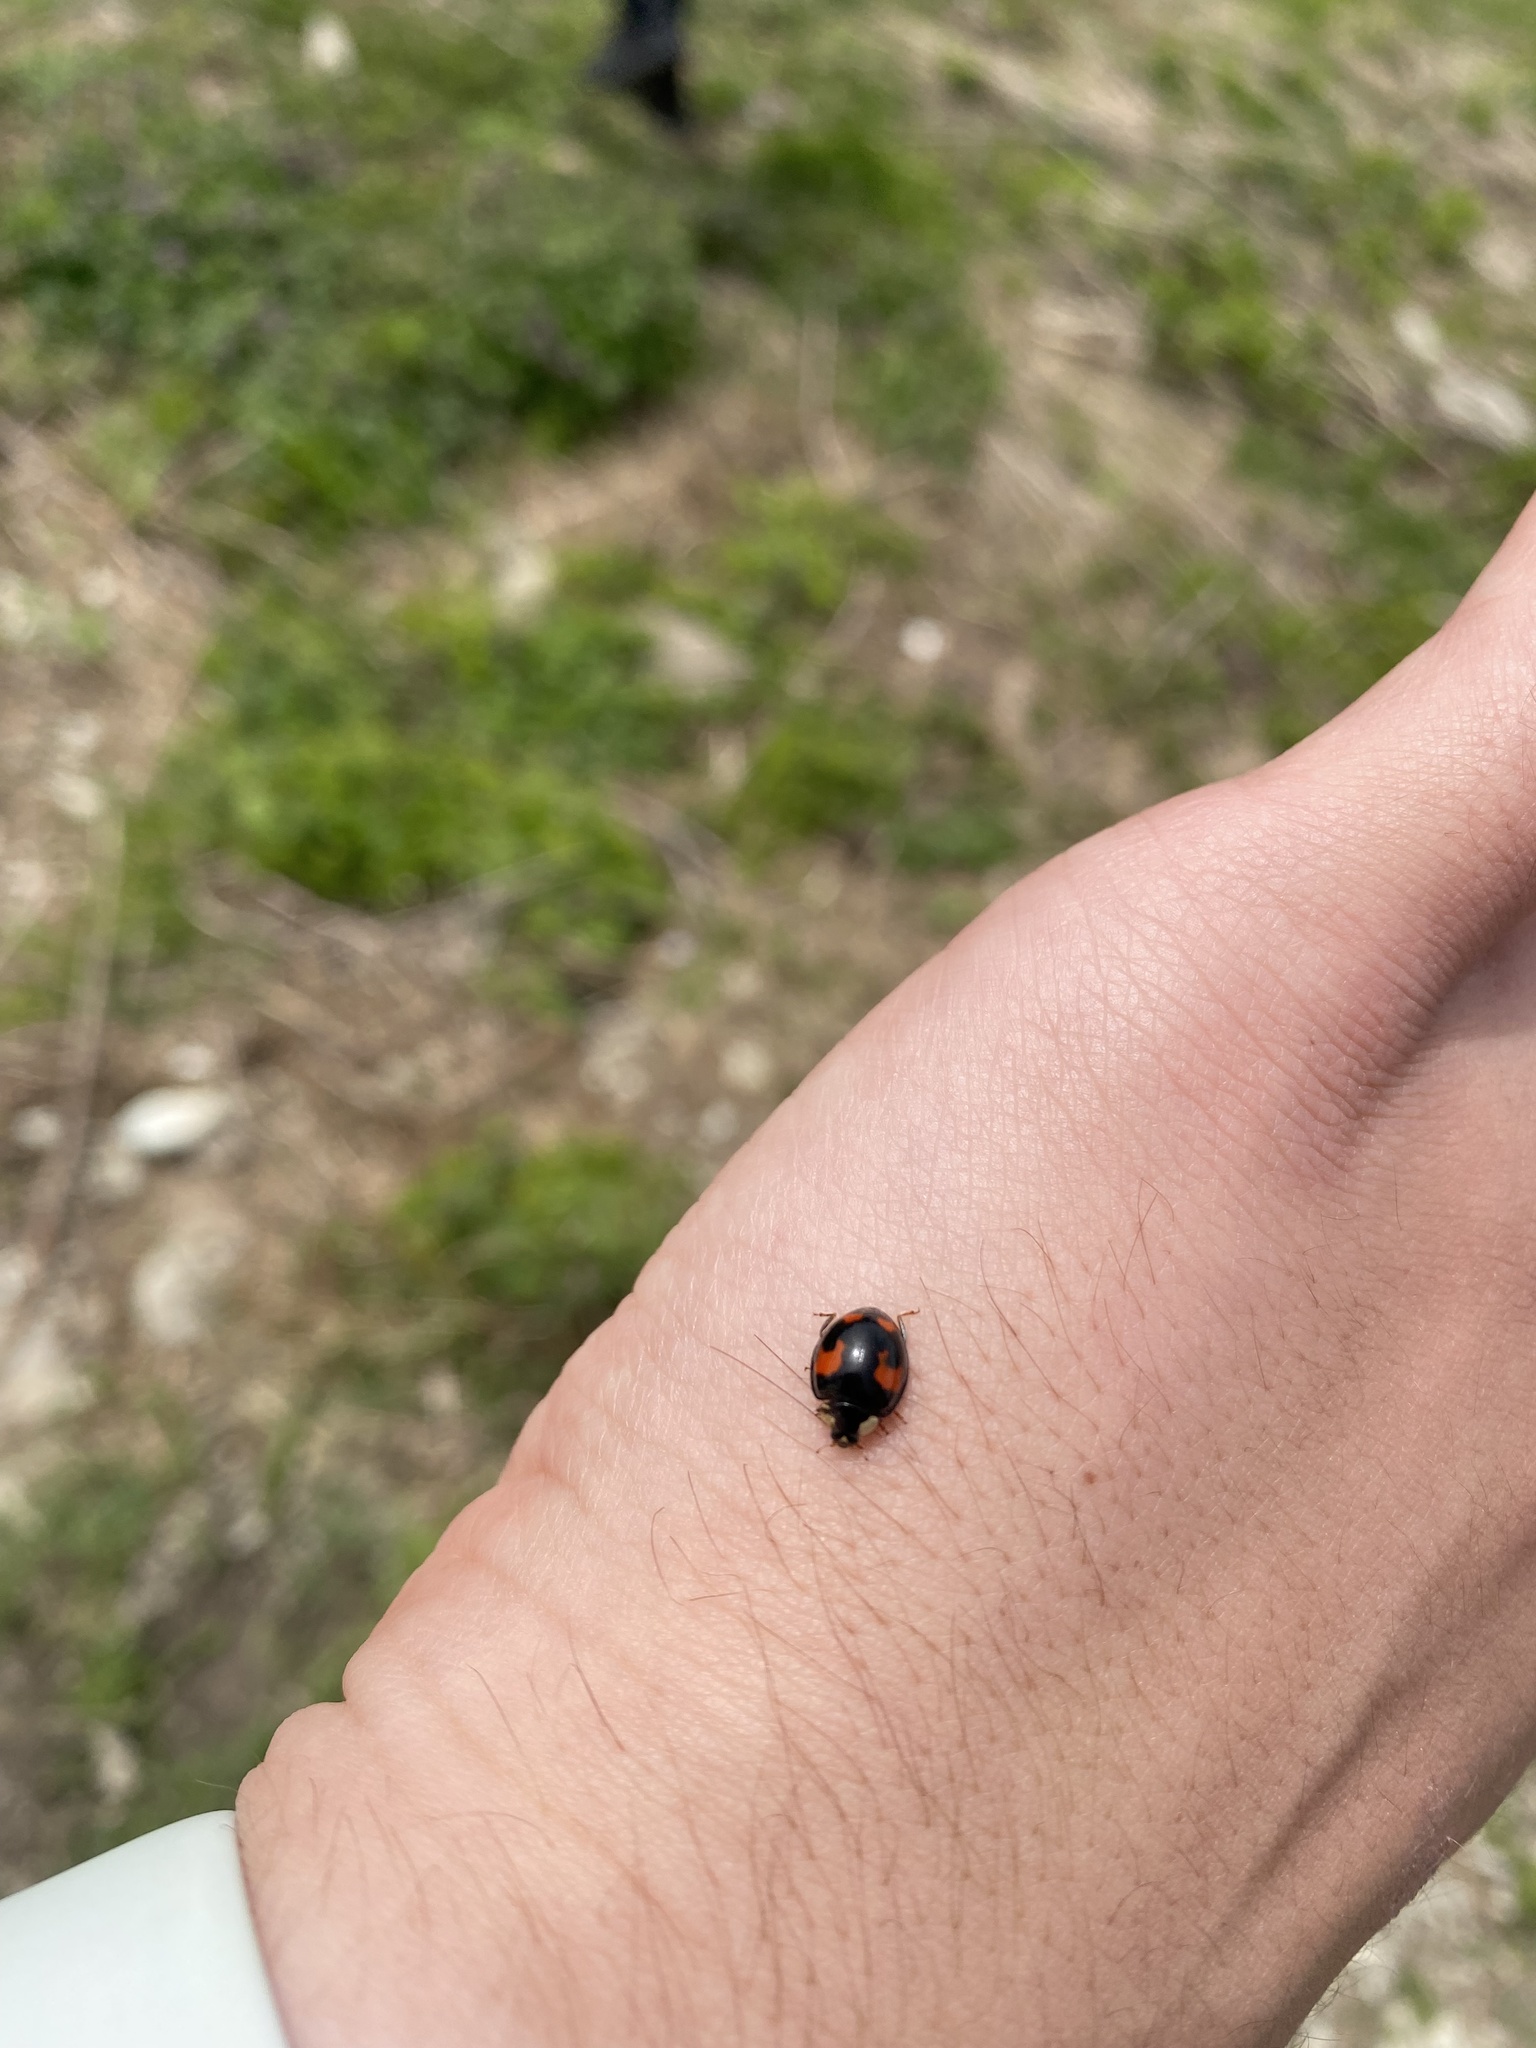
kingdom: Animalia
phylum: Arthropoda
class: Insecta
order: Coleoptera
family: Coccinellidae
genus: Harmonia
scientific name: Harmonia axyridis
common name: Harlequin ladybird
